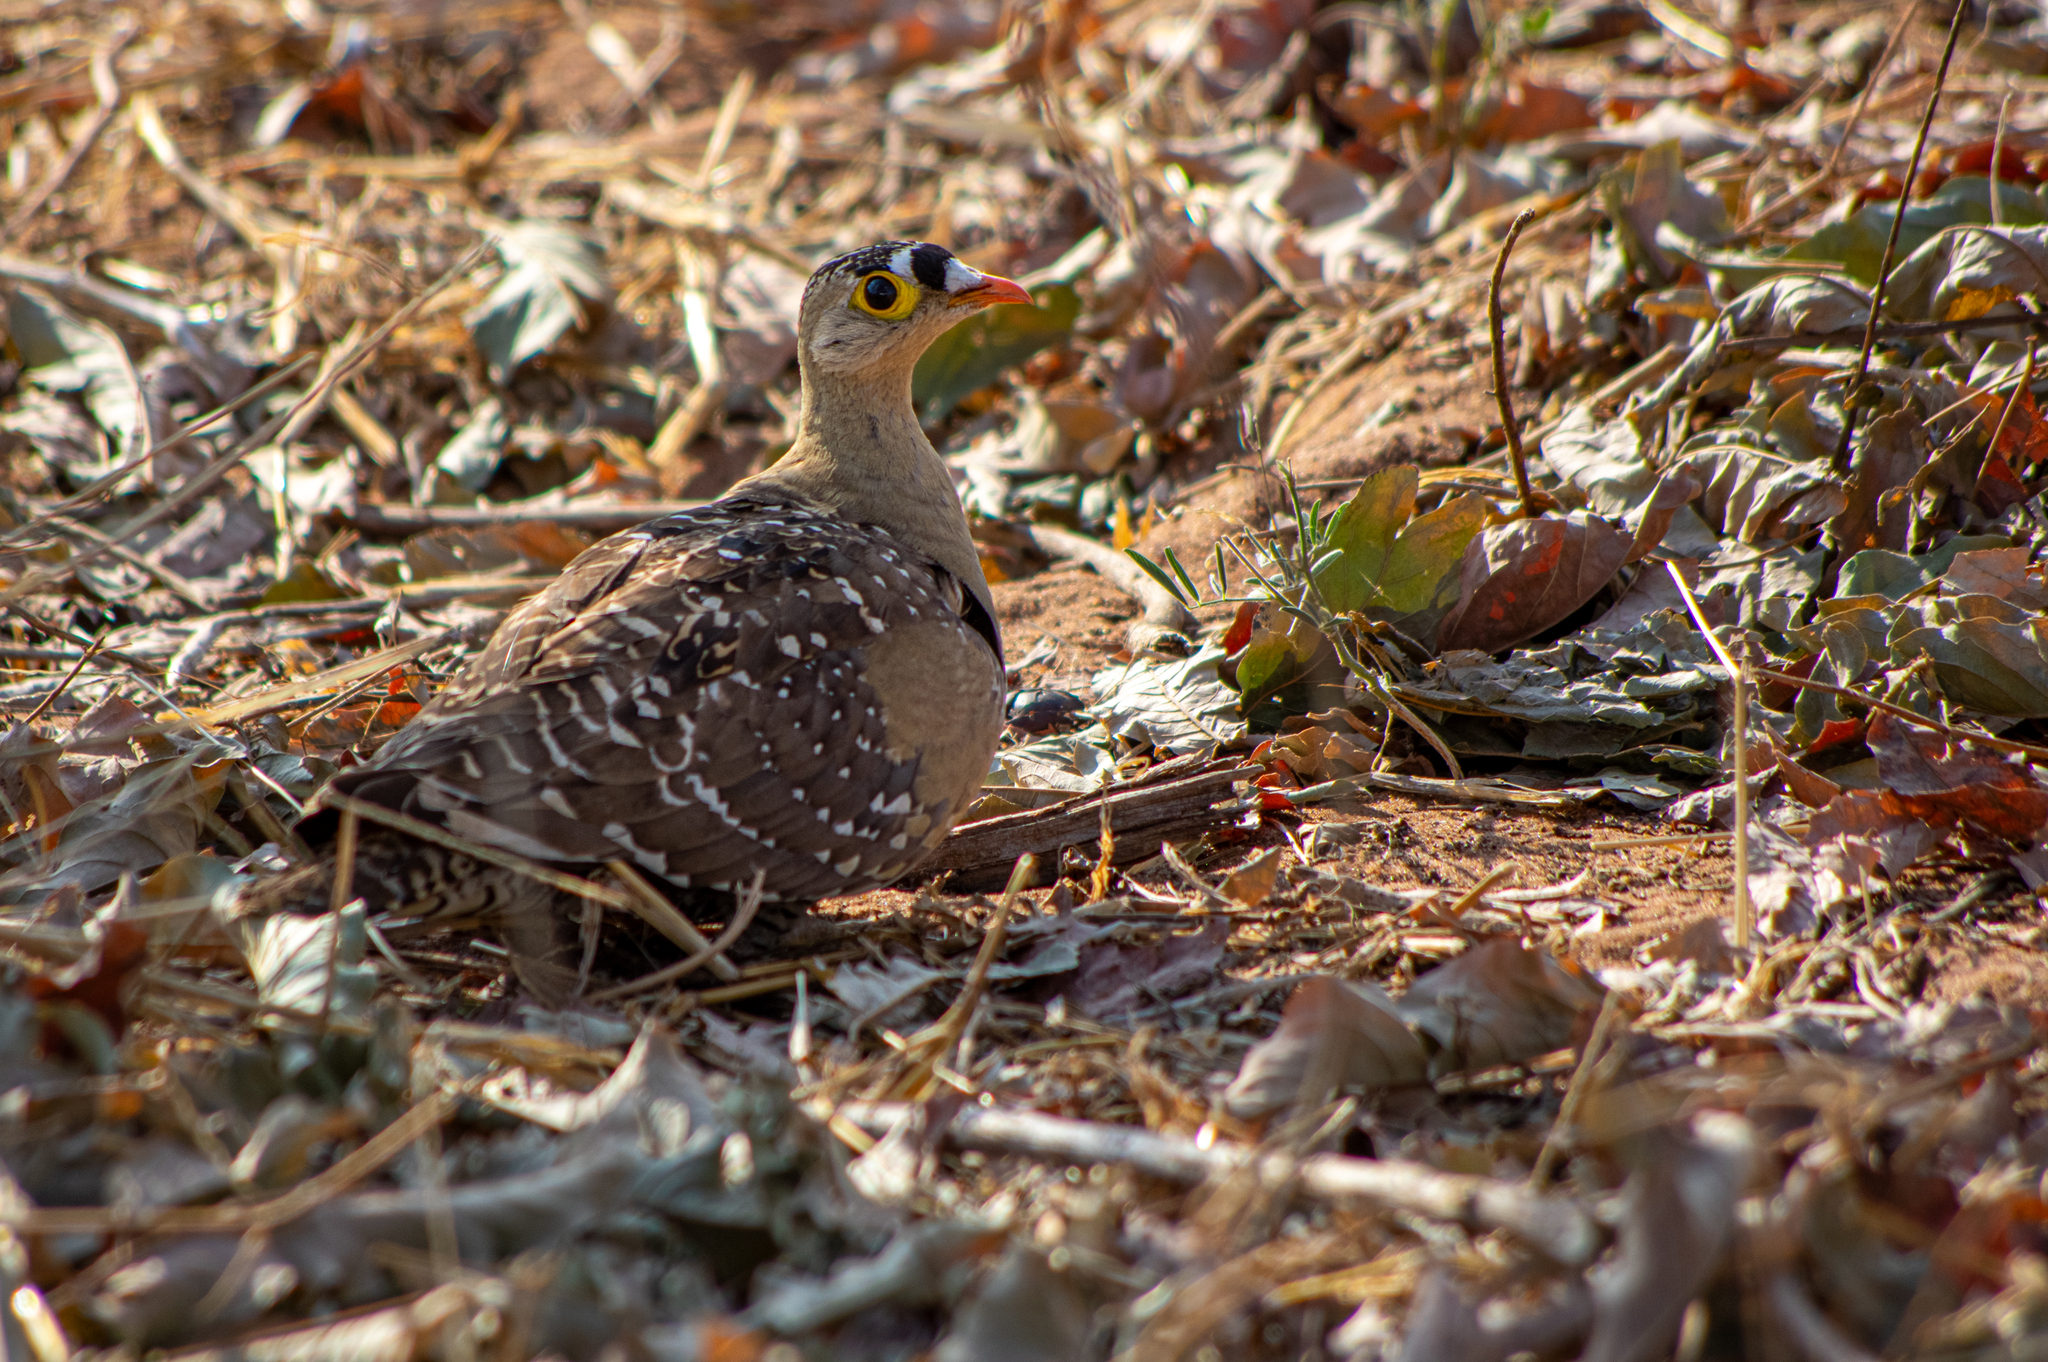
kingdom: Animalia
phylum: Chordata
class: Aves
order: Pteroclidiformes
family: Pteroclididae
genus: Pterocles
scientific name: Pterocles bicinctus
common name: Double-banded sandgrouse
